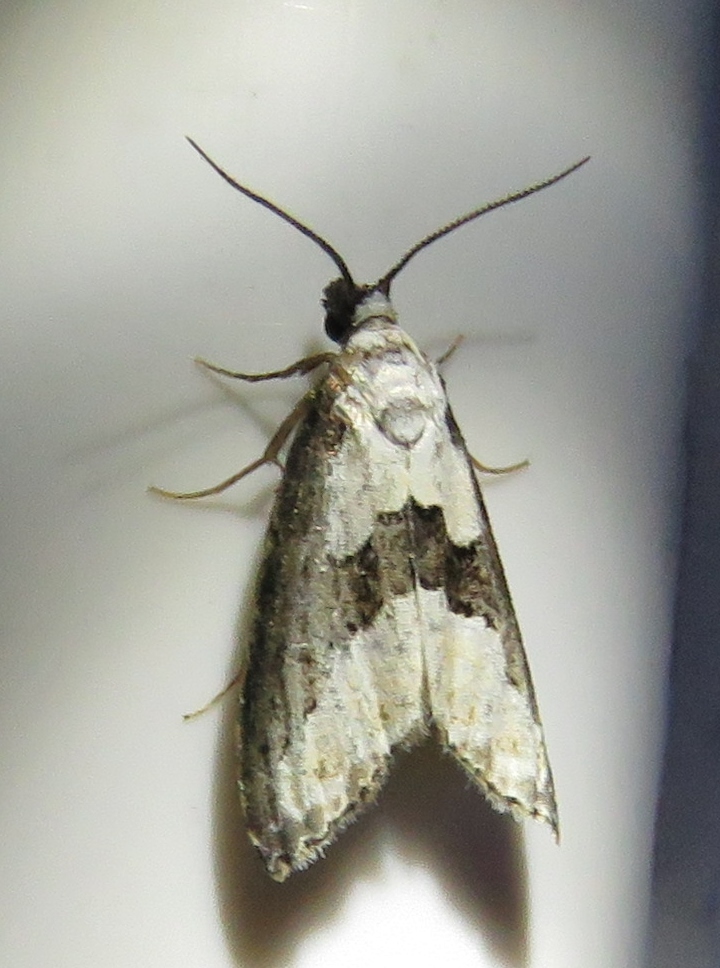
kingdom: Animalia
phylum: Arthropoda
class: Insecta
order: Lepidoptera
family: Noctuidae
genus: Nigetia
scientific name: Nigetia formosalis
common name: Thin-winged owlet
